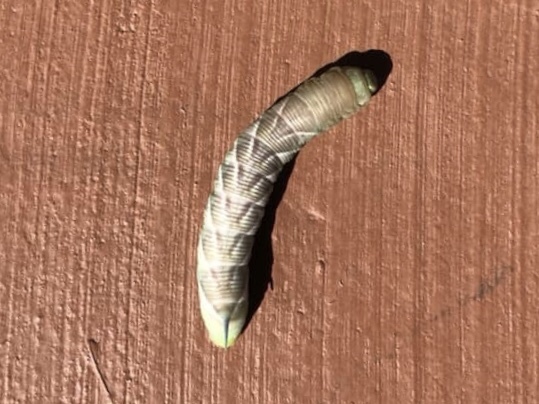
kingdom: Animalia
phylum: Arthropoda
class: Insecta
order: Lepidoptera
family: Sphingidae
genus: Sphinx
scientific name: Sphinx chersis
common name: Great ash sphinx
